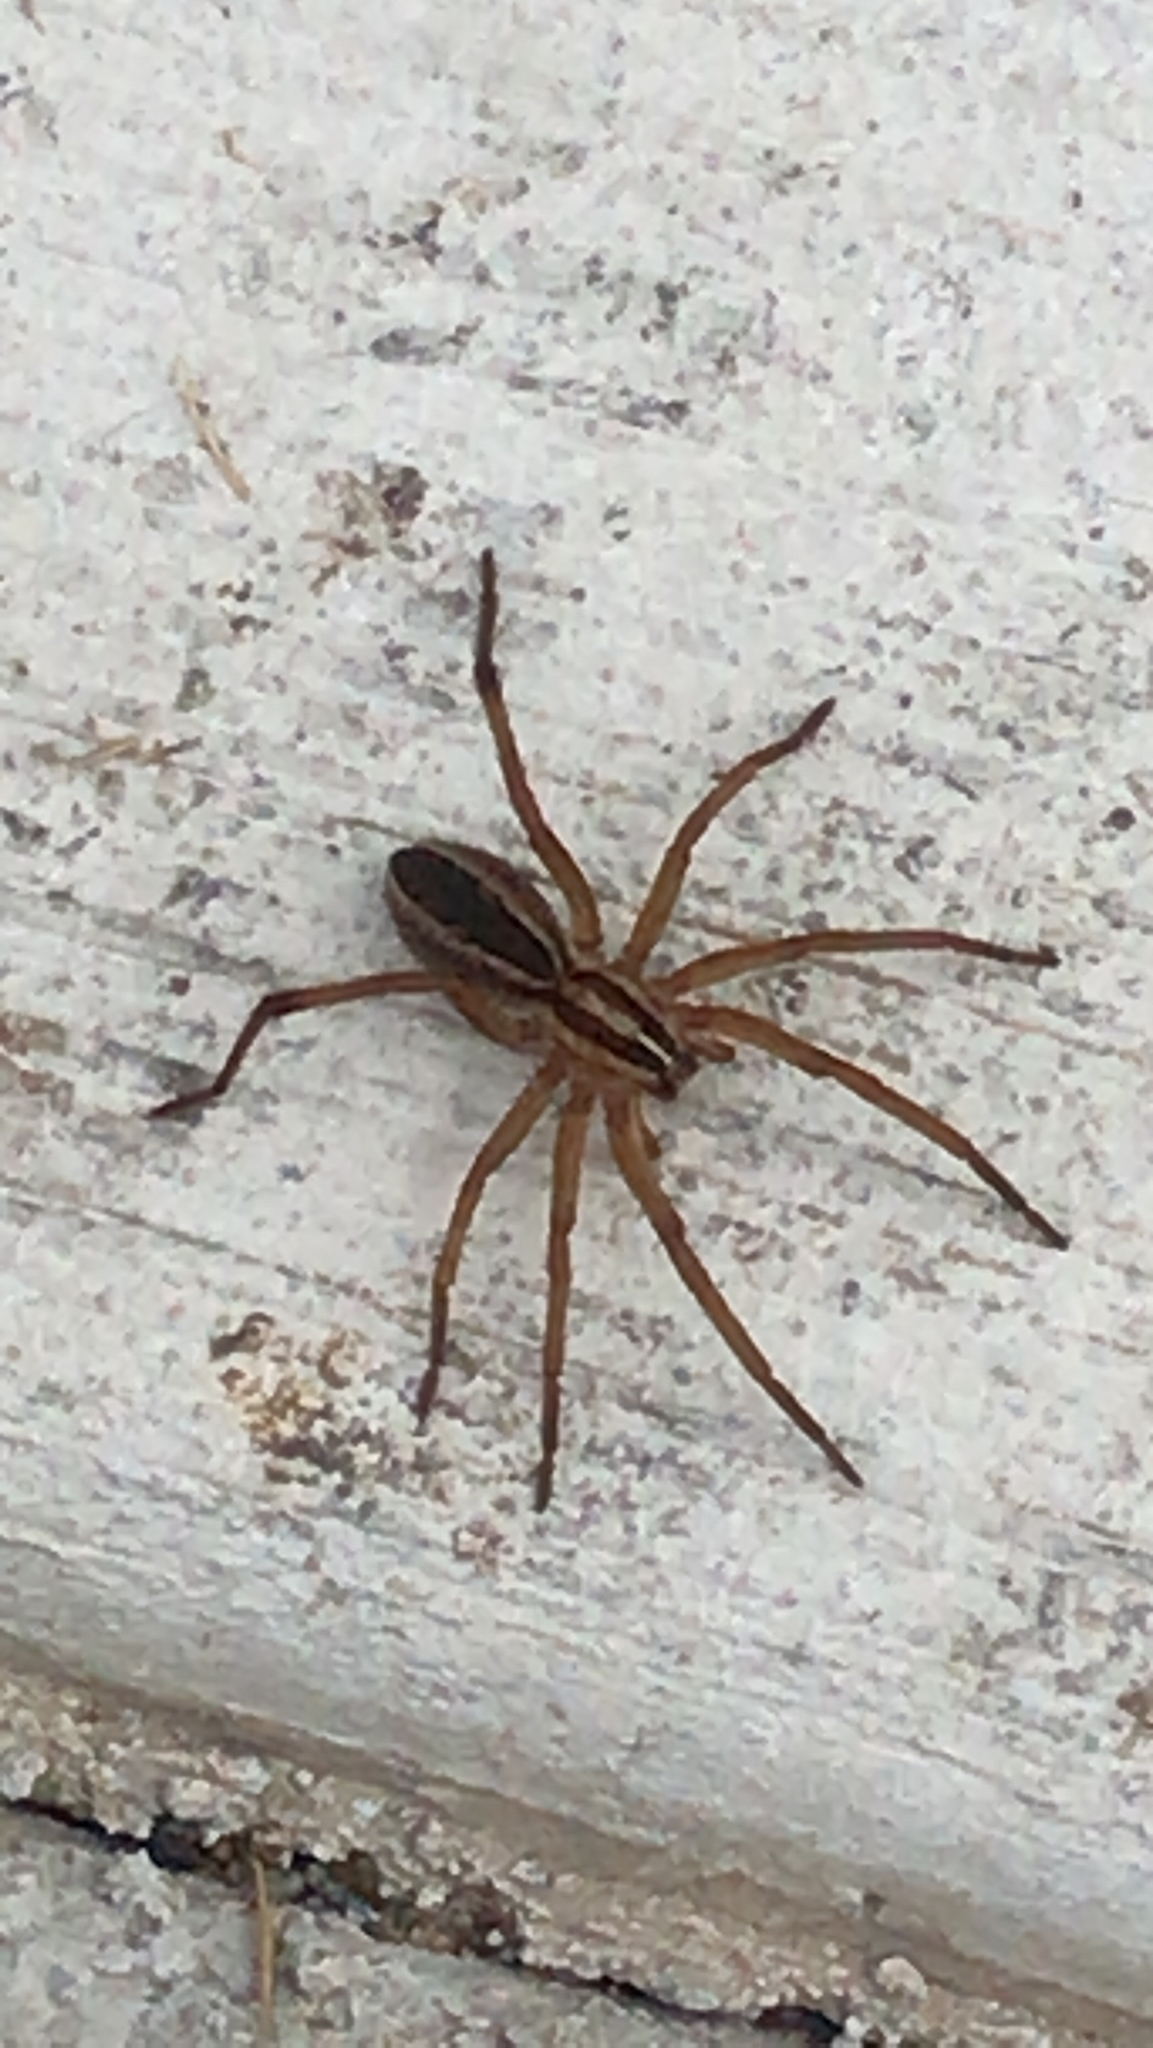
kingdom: Animalia
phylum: Arthropoda
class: Arachnida
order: Araneae
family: Lycosidae
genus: Rabidosa
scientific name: Rabidosa rabida
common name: Rabid wolf spider
